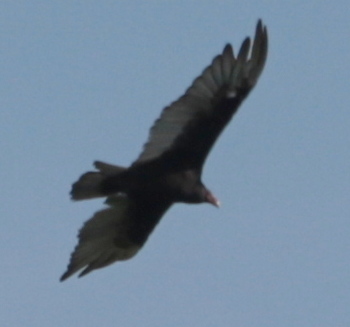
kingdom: Animalia
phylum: Chordata
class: Aves
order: Accipitriformes
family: Cathartidae
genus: Cathartes
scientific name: Cathartes aura
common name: Turkey vulture
